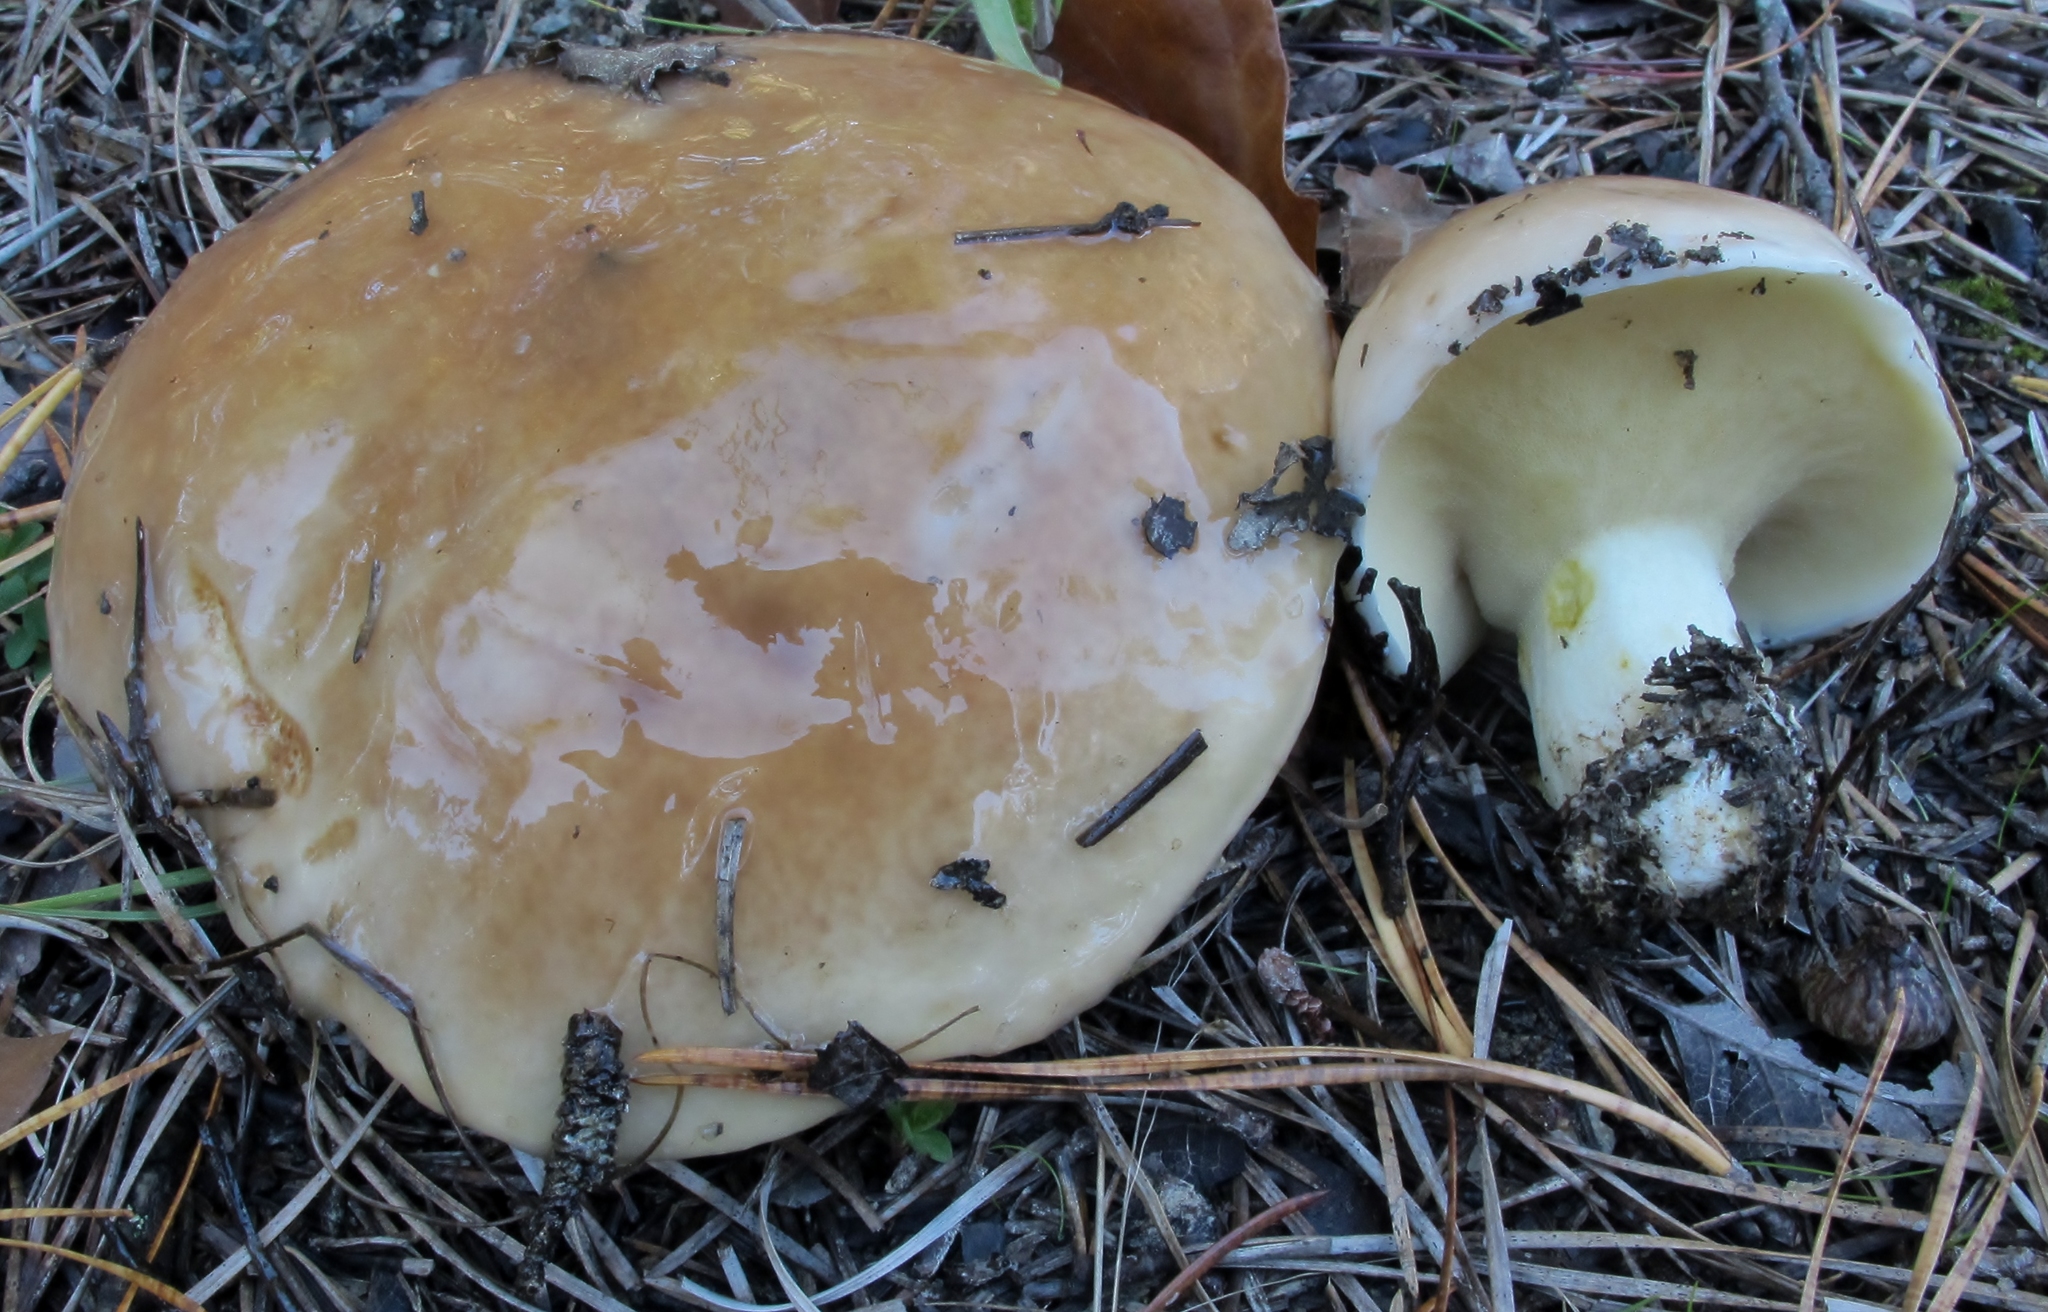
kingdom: Fungi
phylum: Basidiomycota
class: Agaricomycetes
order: Boletales
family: Suillaceae
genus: Suillus
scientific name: Suillus brevipes
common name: Short-stalked suillus
